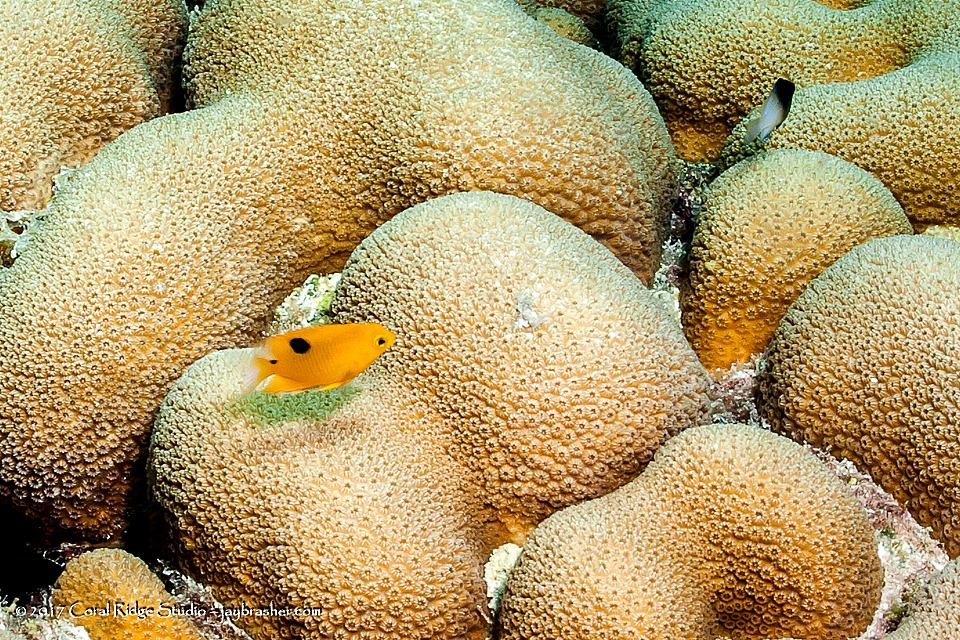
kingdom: Animalia
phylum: Chordata
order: Perciformes
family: Pomacentridae
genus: Stegastes
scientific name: Stegastes planifrons
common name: Threespot damselfish
